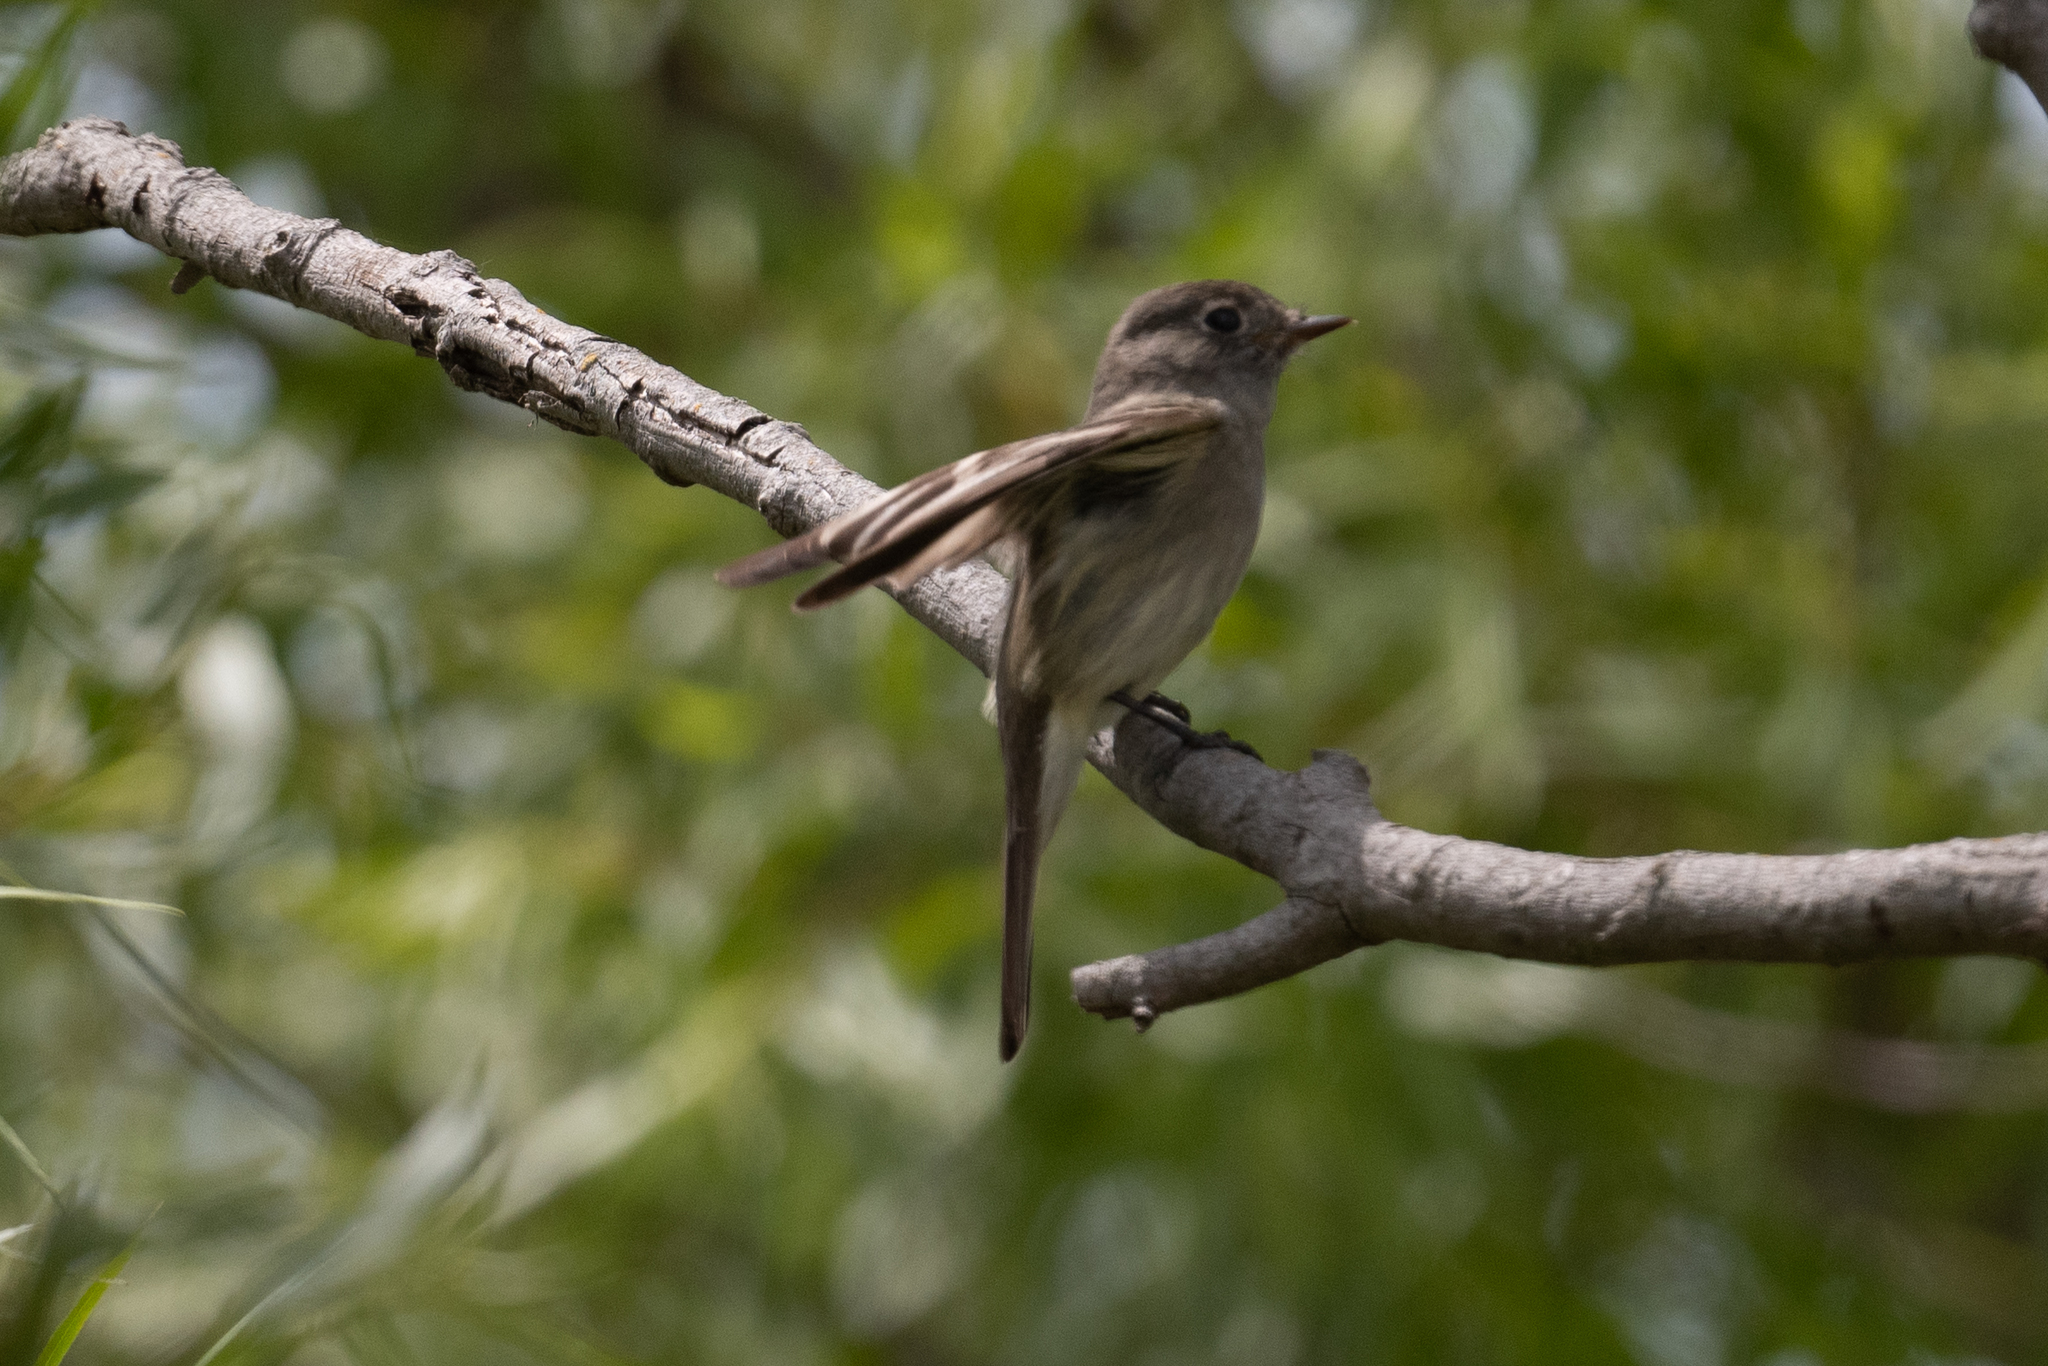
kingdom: Animalia
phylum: Chordata
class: Aves
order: Passeriformes
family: Tyrannidae
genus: Empidonax
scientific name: Empidonax hammondii
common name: Hammond's flycatcher
